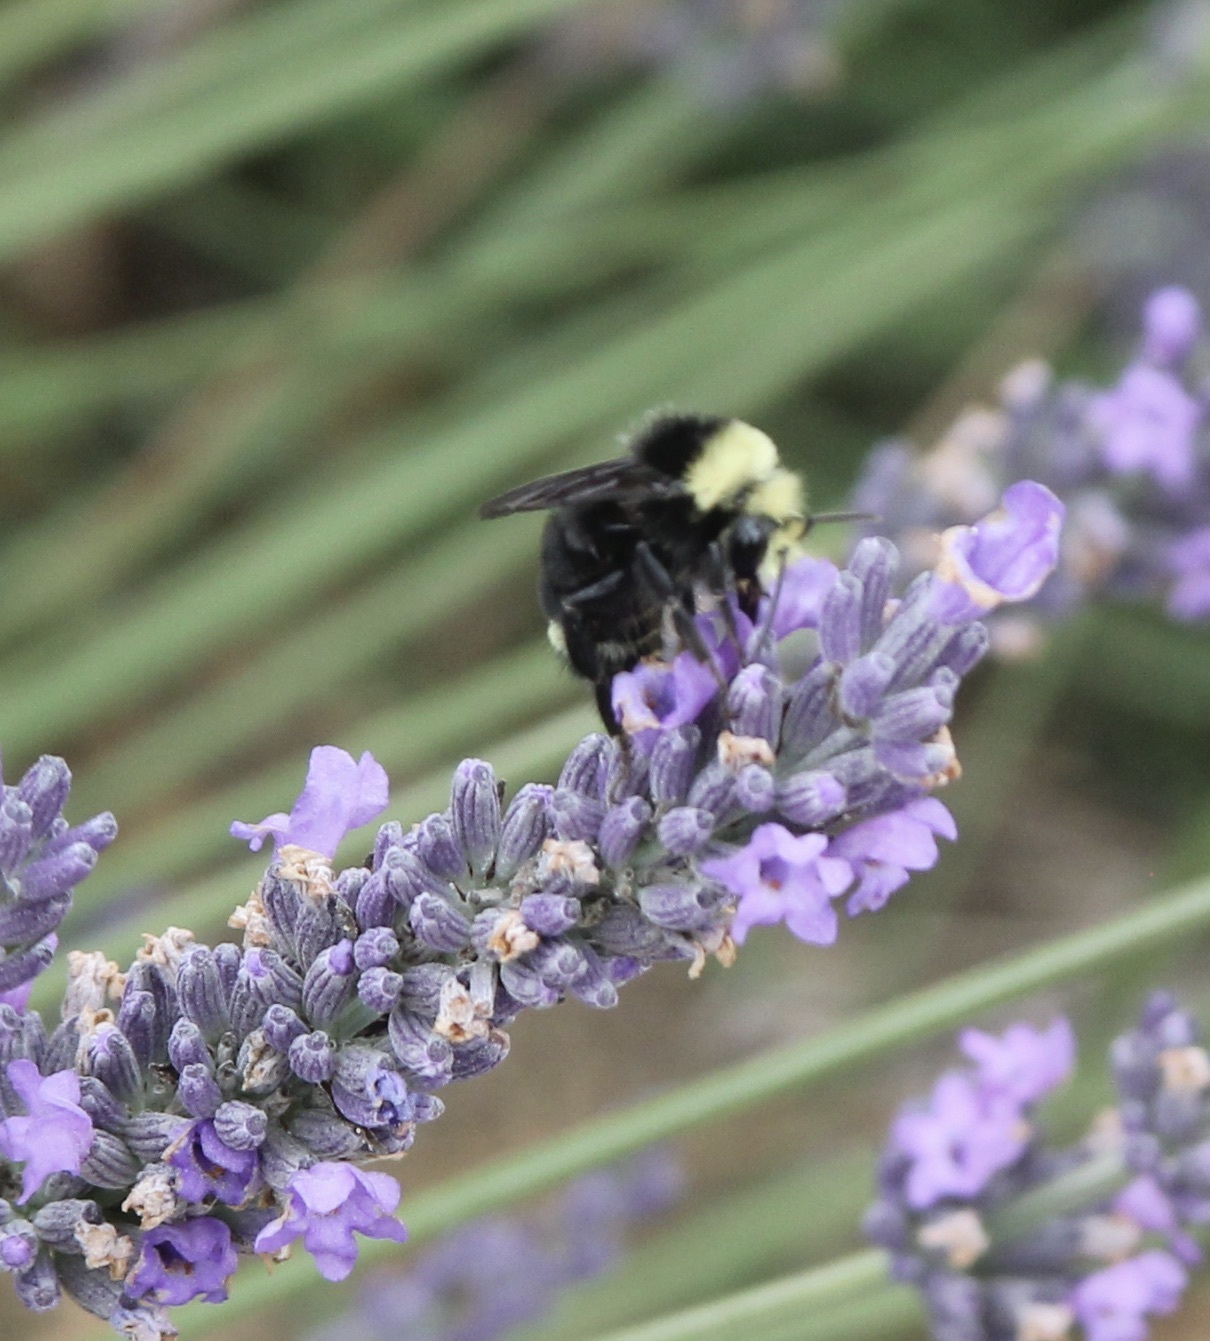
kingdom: Animalia
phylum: Arthropoda
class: Insecta
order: Hymenoptera
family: Apidae
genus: Bombus
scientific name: Bombus vosnesenskii
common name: Vosnesensky bumble bee
